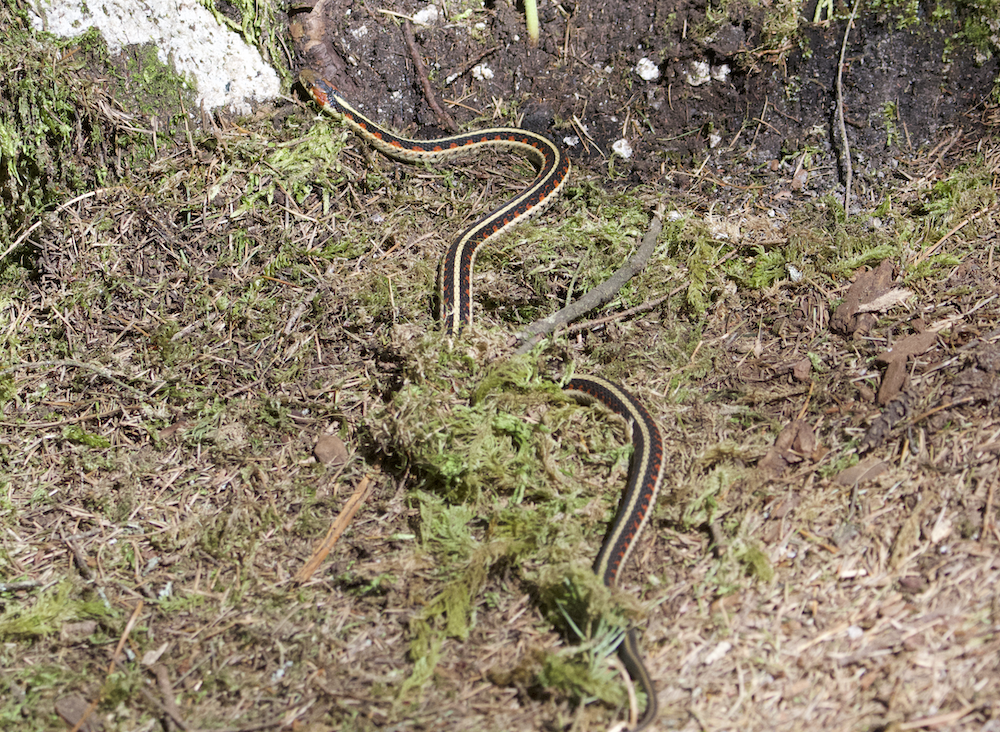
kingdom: Animalia
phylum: Chordata
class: Squamata
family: Colubridae
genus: Thamnophis
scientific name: Thamnophis sirtalis
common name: Common garter snake
